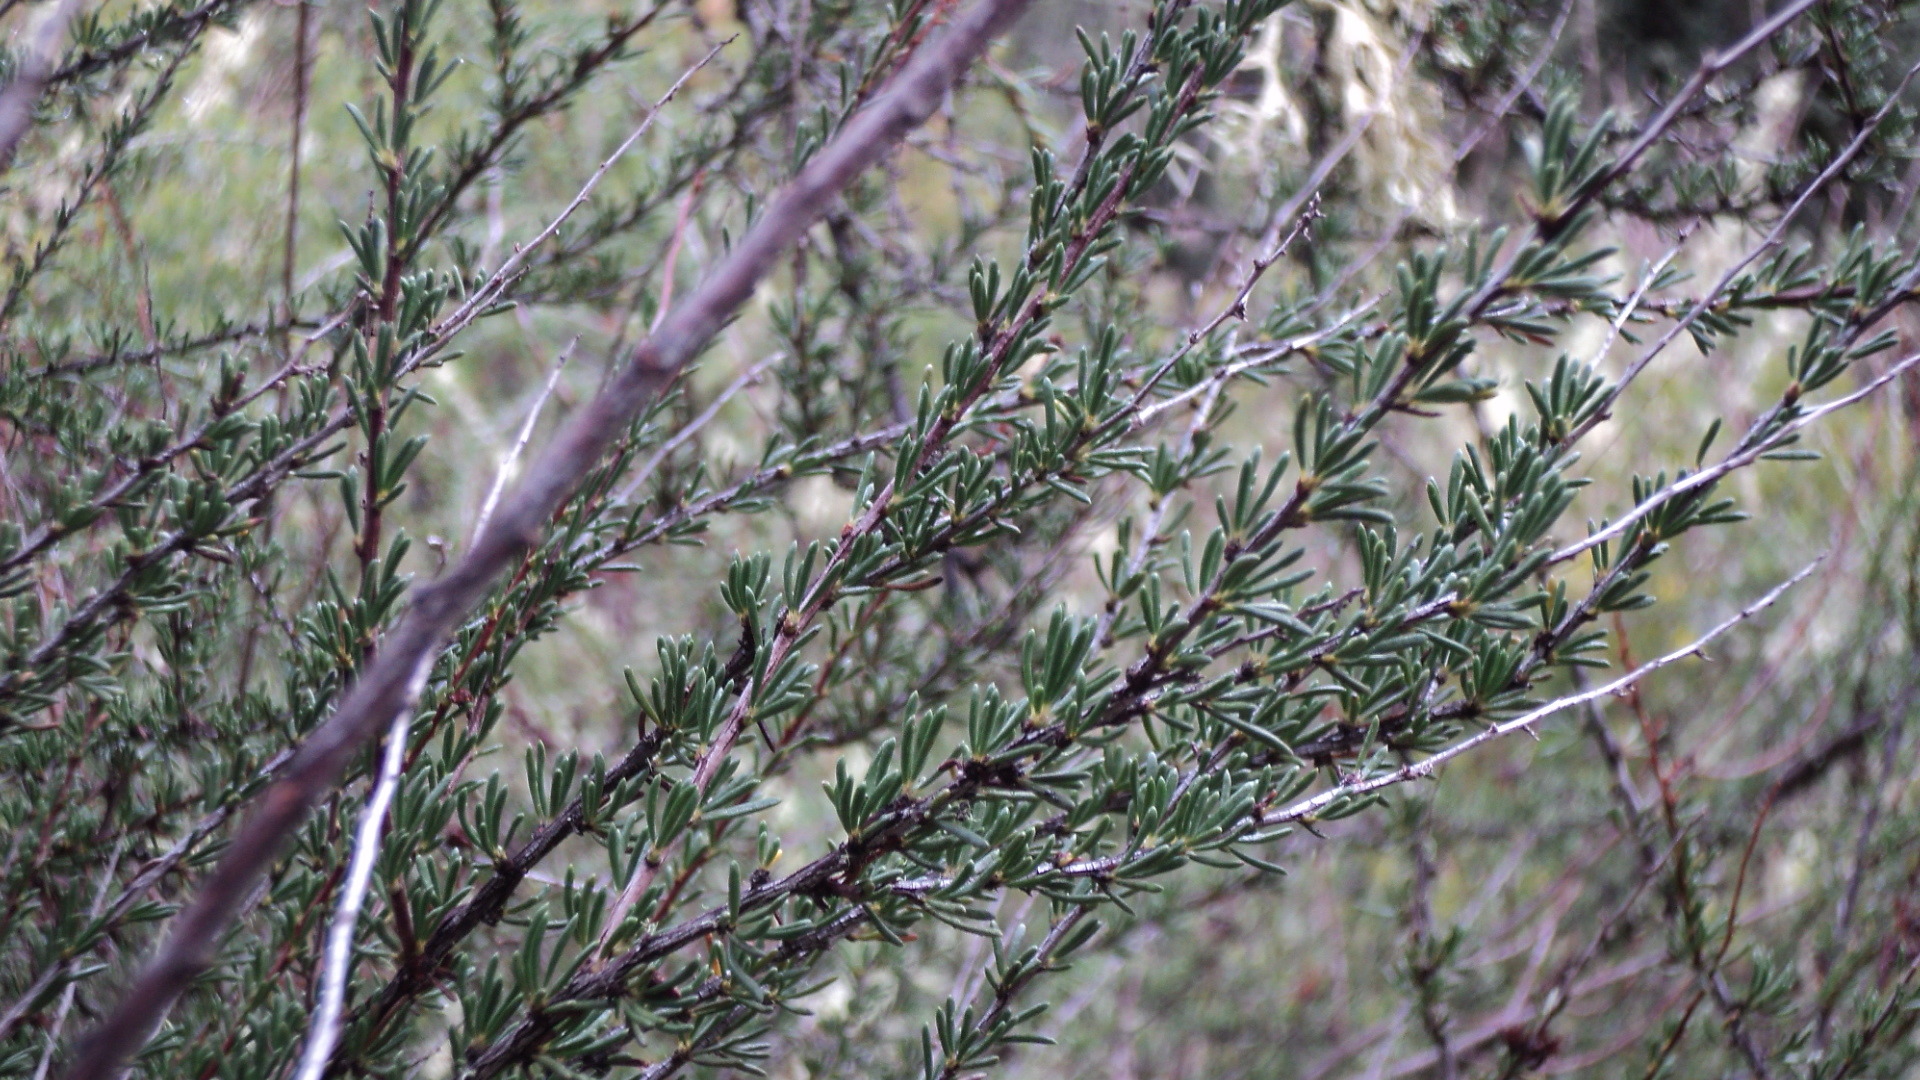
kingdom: Plantae
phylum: Tracheophyta
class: Magnoliopsida
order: Rosales
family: Rosaceae
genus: Adenostoma
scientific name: Adenostoma fasciculatum
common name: Chamise
